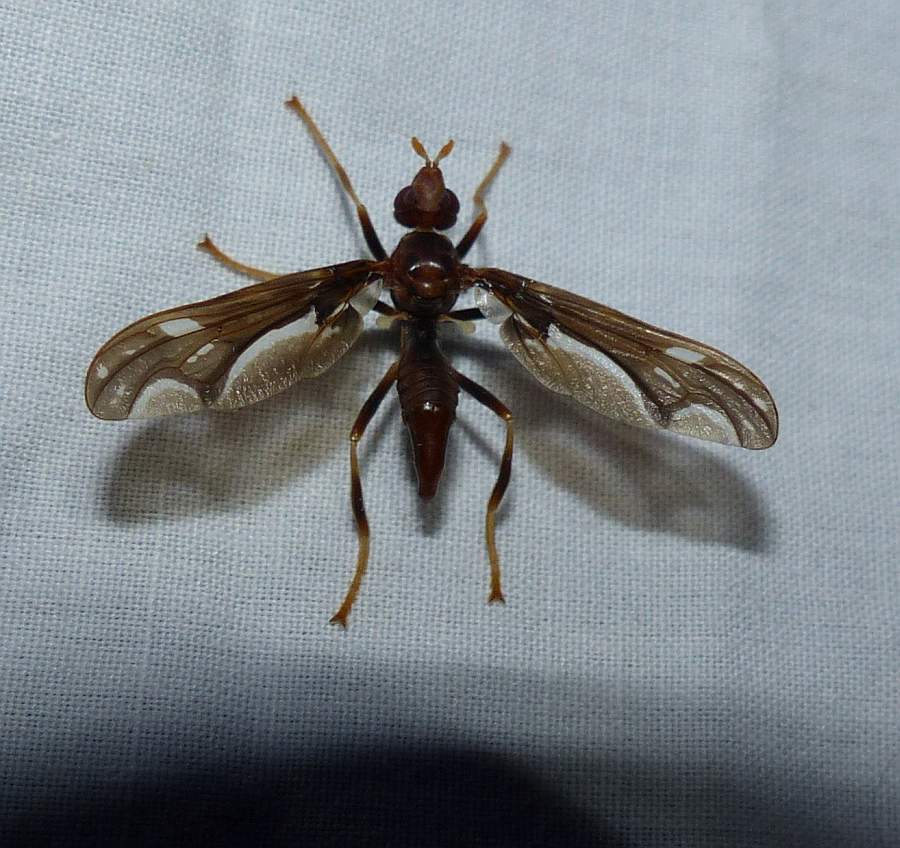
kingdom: Animalia
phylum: Arthropoda
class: Insecta
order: Diptera
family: Pyrgotidae
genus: Pyrgota
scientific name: Pyrgota undata
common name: Waved light fly
